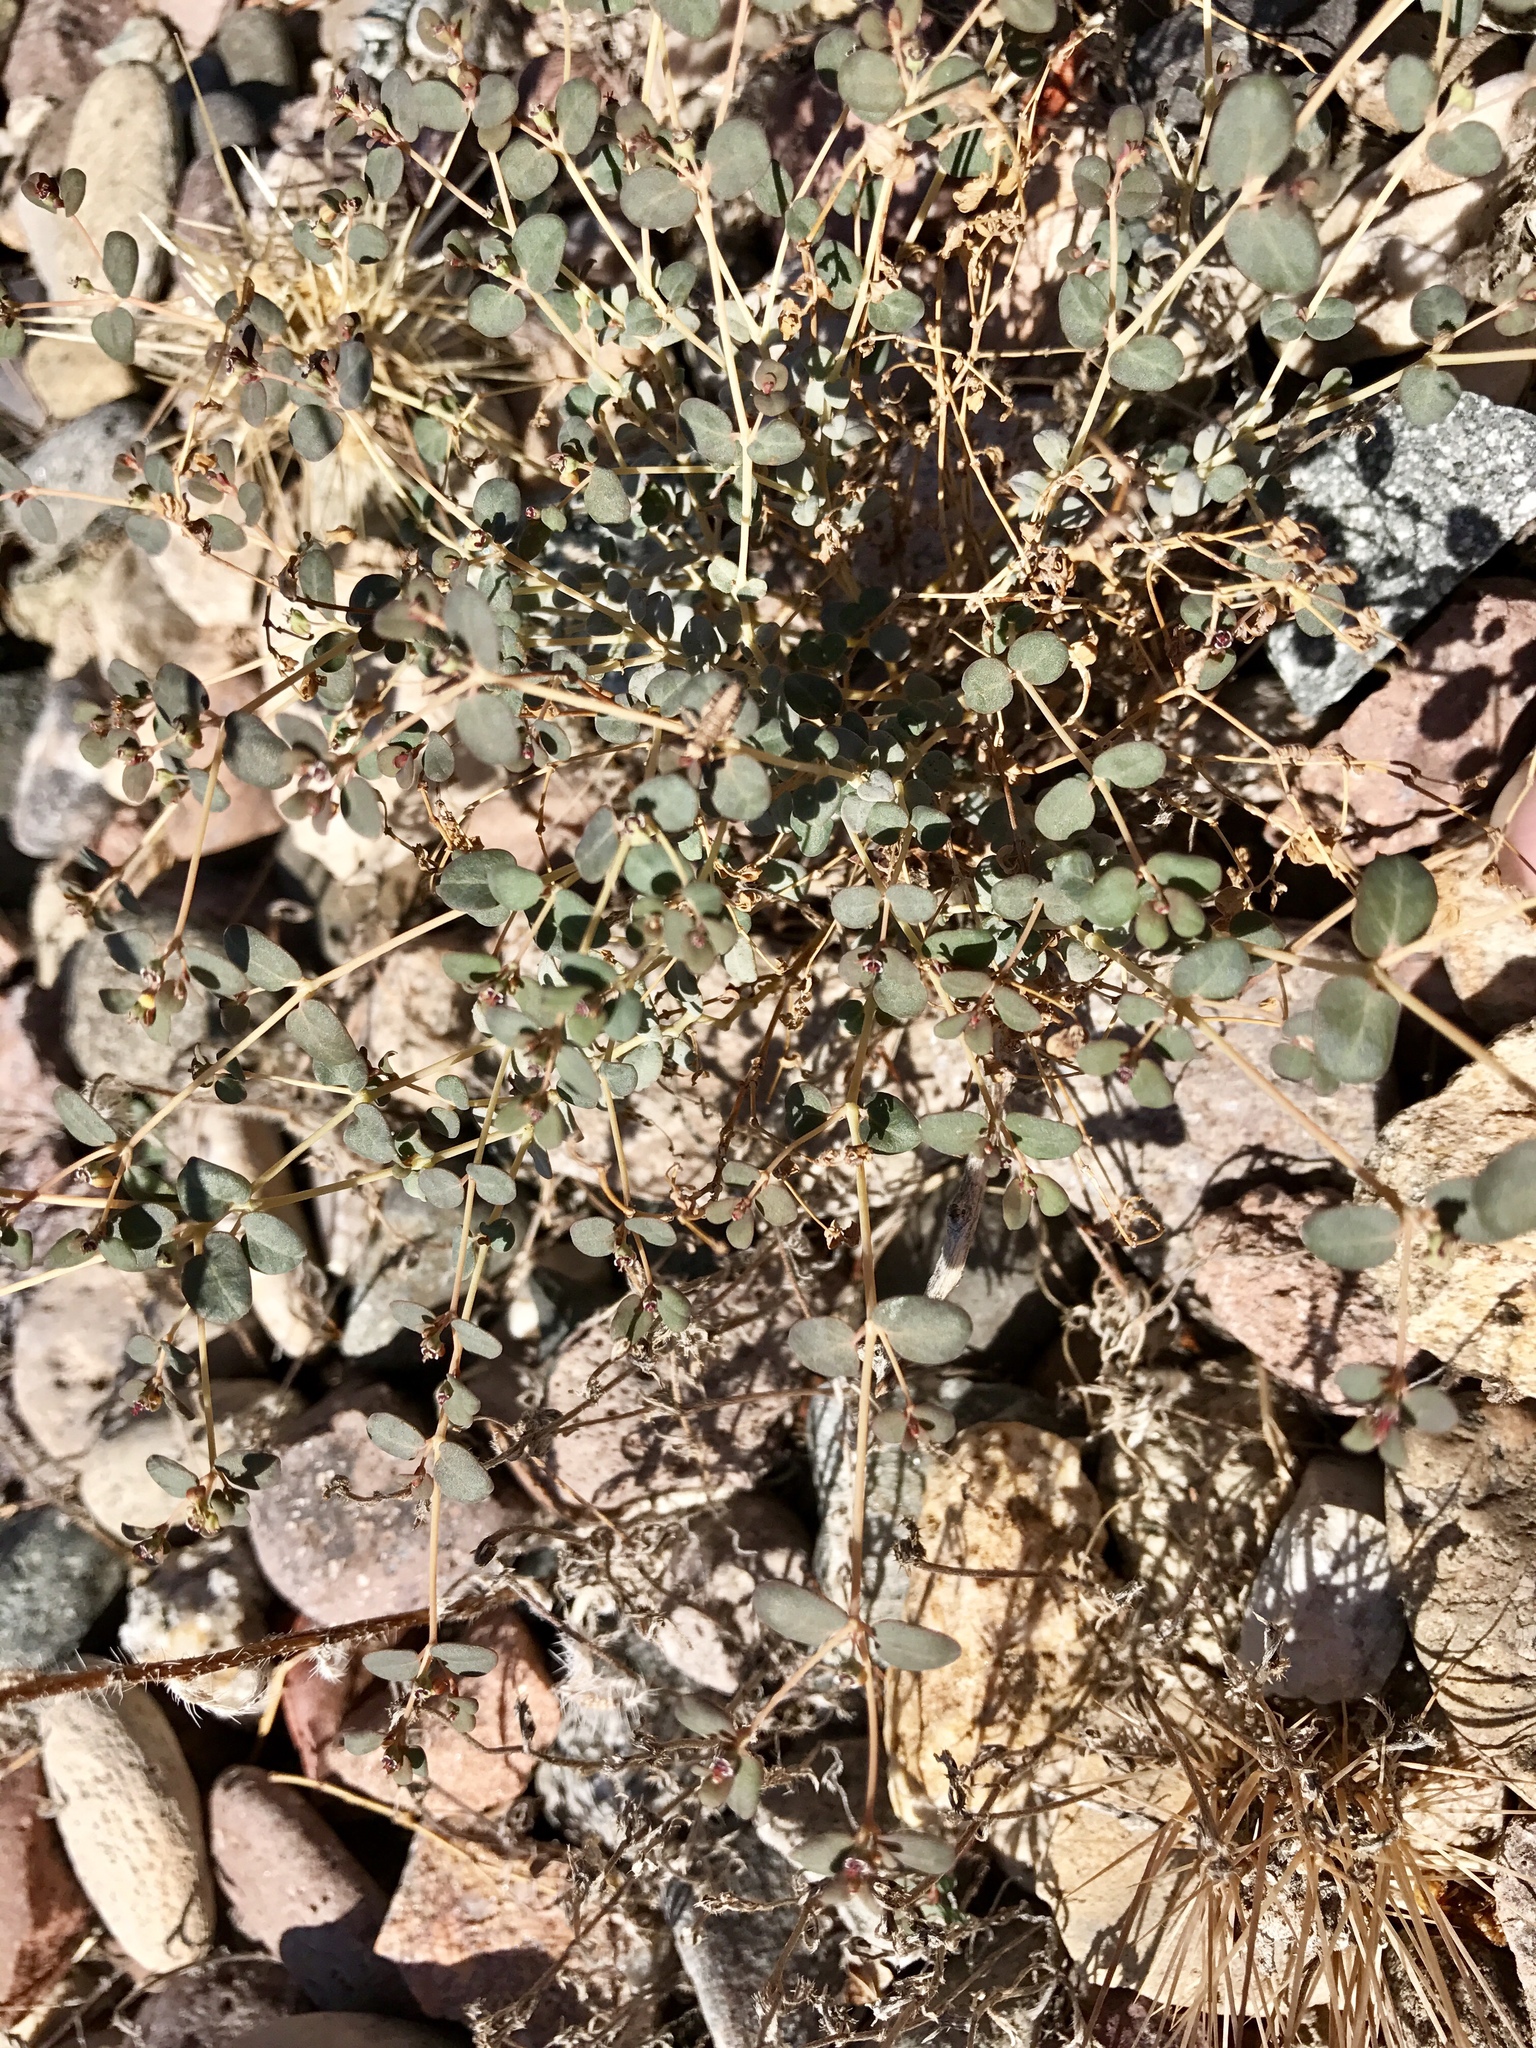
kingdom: Plantae
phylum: Tracheophyta
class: Magnoliopsida
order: Malpighiales
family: Euphorbiaceae
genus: Euphorbia
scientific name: Euphorbia polycarpa
